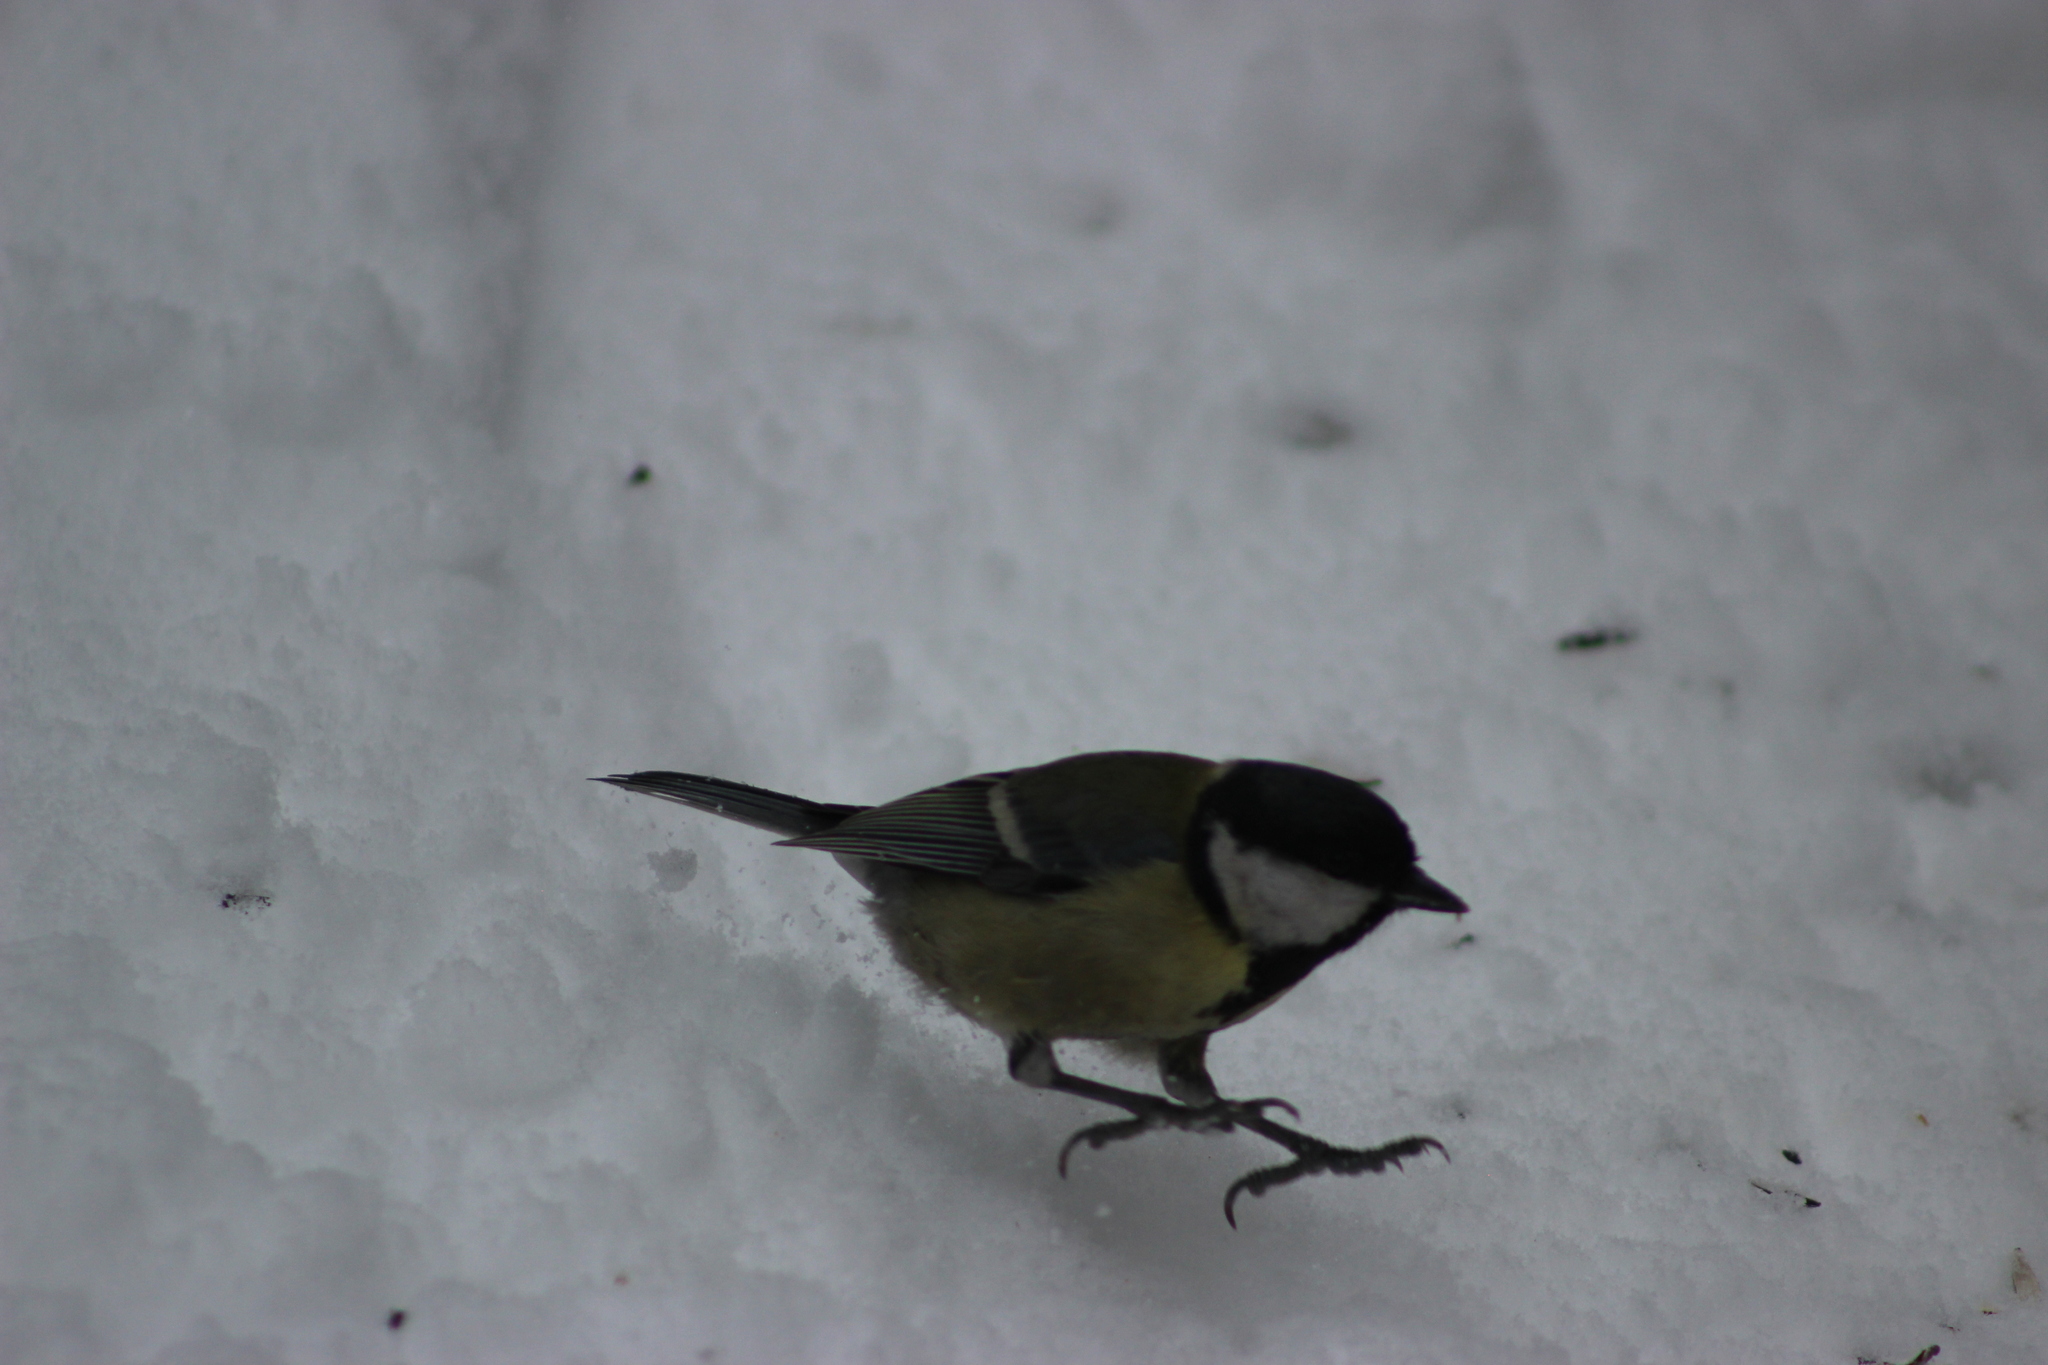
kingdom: Animalia
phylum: Chordata
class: Aves
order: Passeriformes
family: Paridae
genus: Parus
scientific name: Parus major
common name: Great tit
